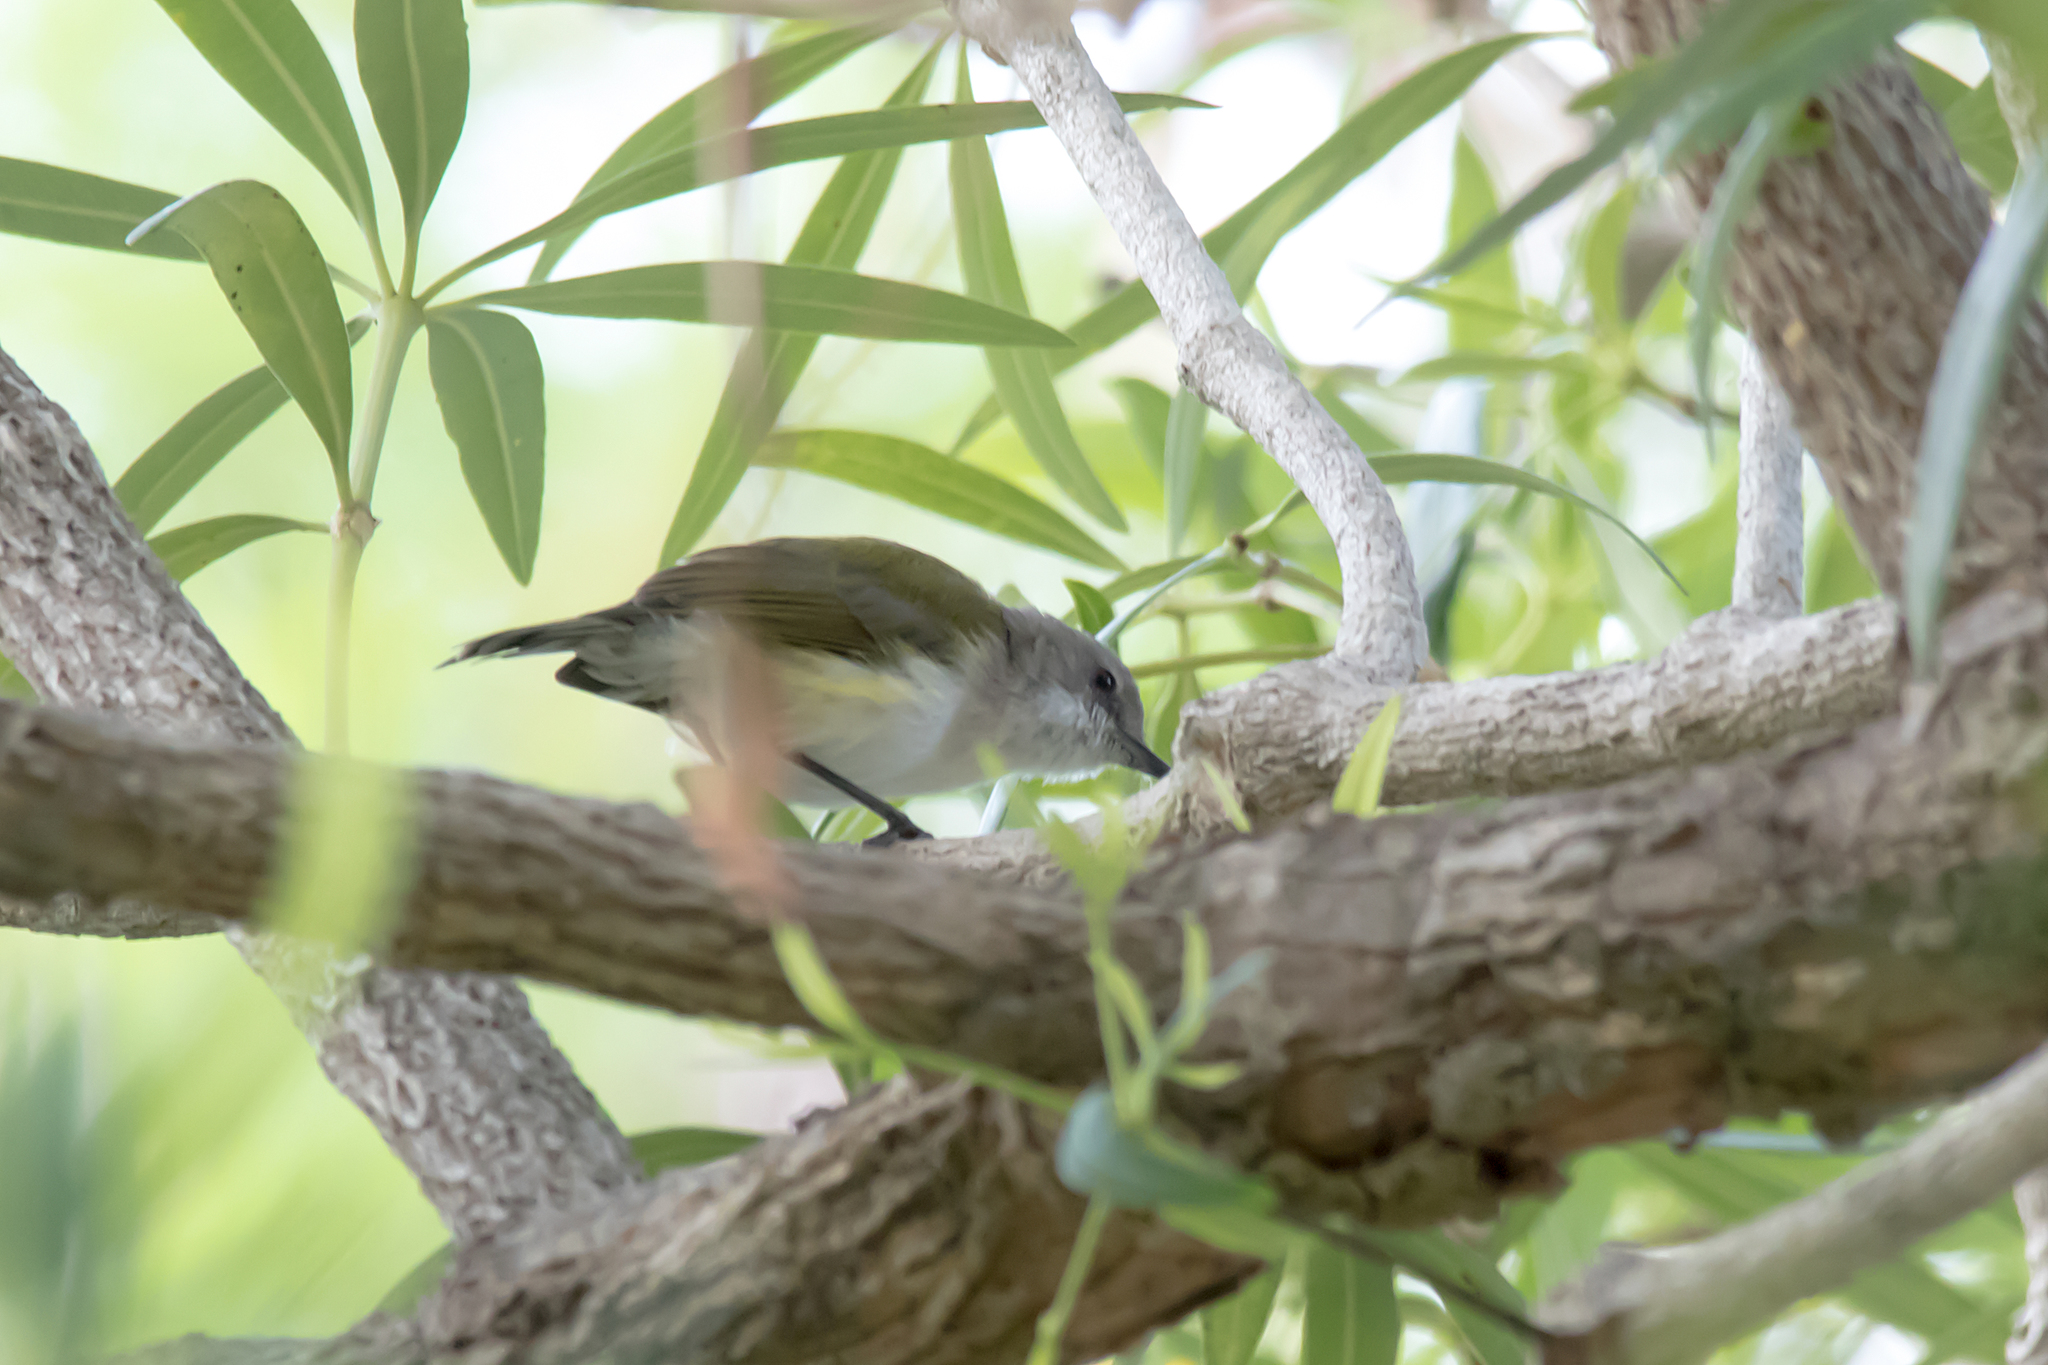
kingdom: Animalia
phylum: Chordata
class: Aves
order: Passeriformes
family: Acanthizidae
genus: Gerygone
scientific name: Gerygone chloronota
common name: Green-backed gerygone
